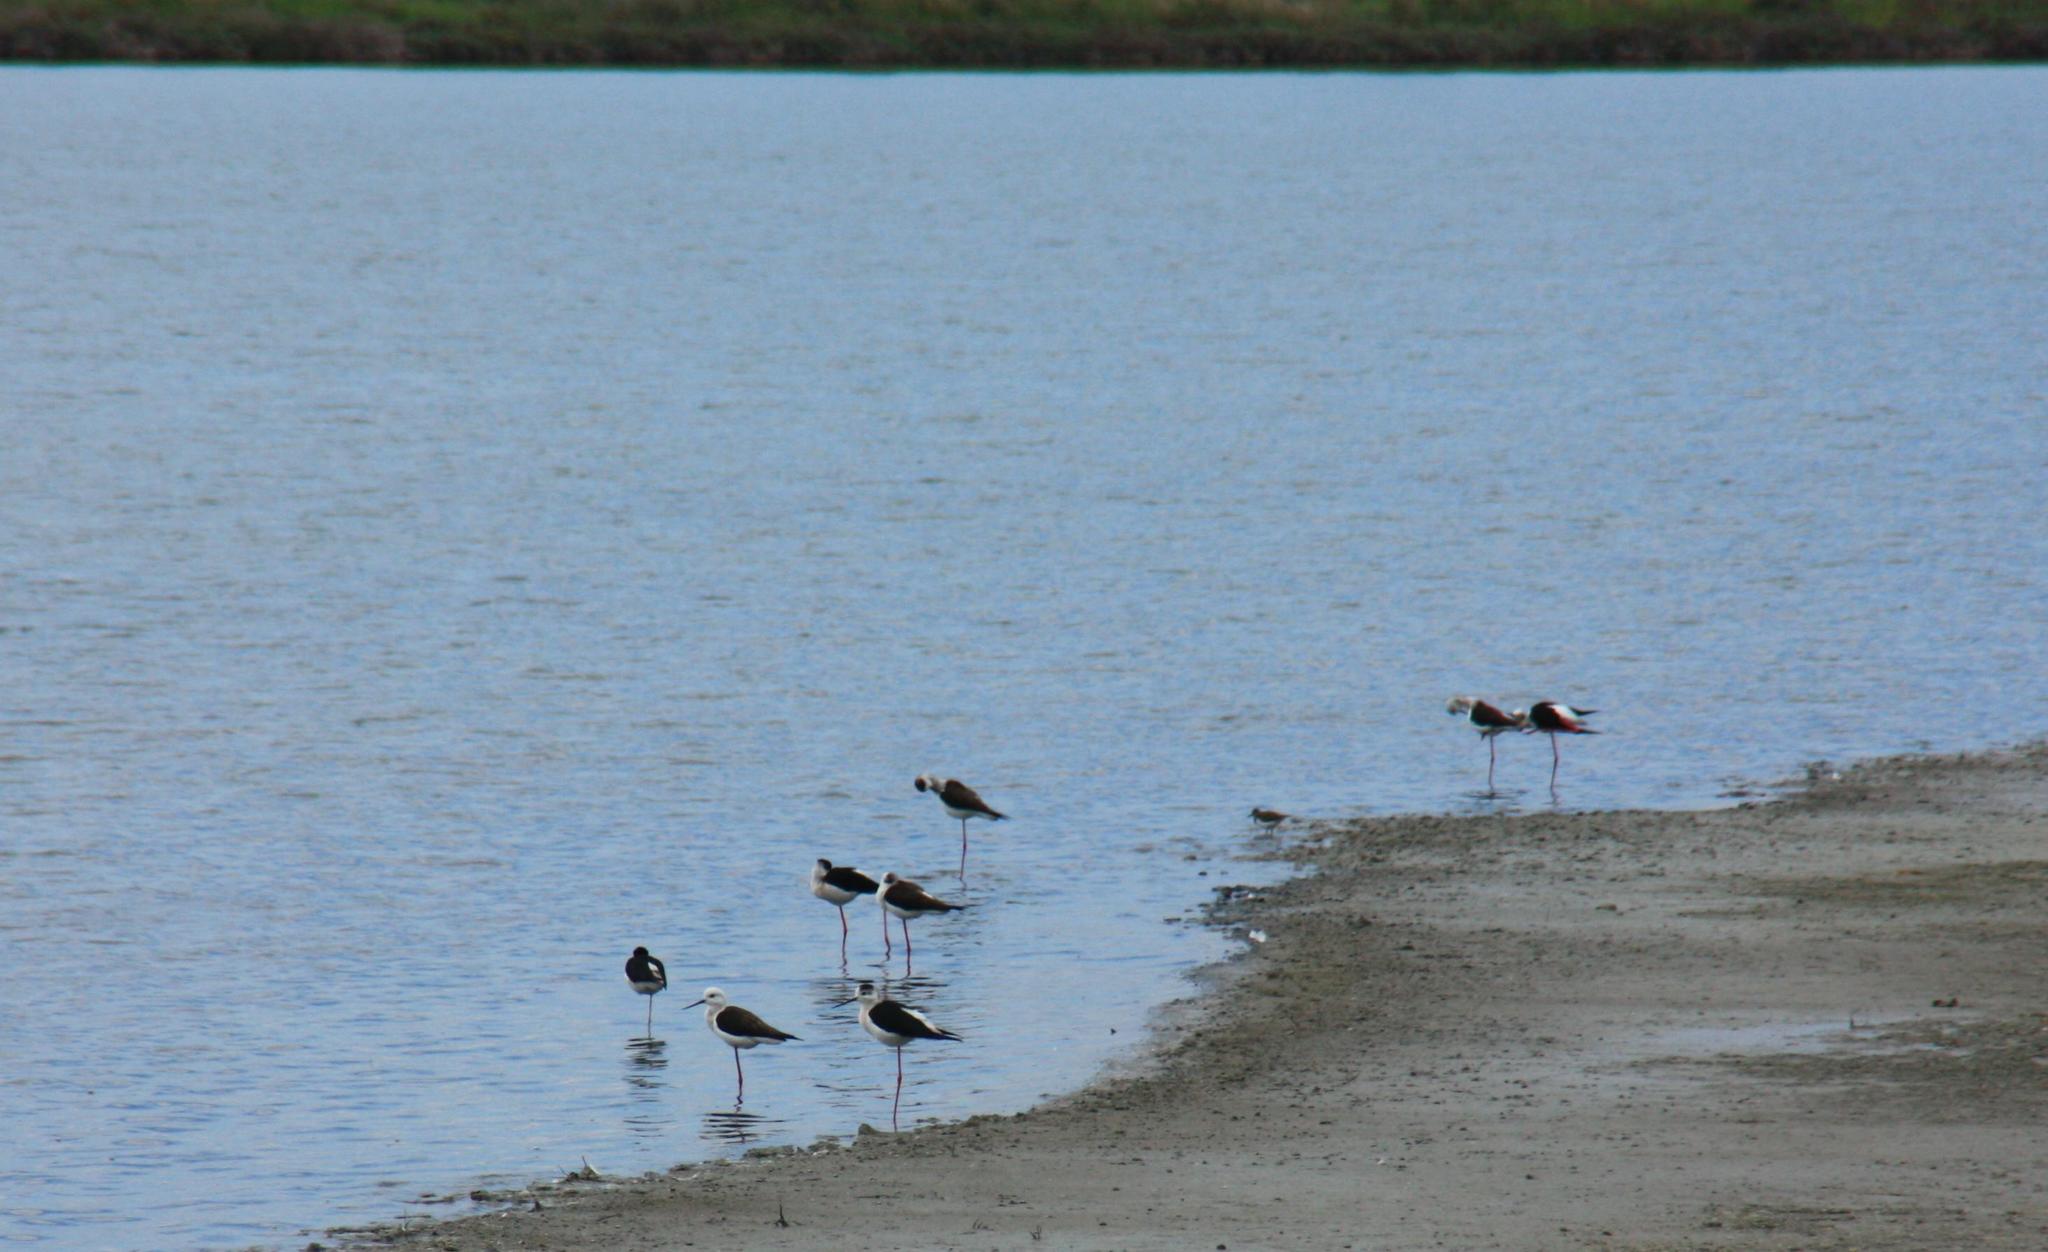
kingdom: Animalia
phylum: Chordata
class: Aves
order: Charadriiformes
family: Recurvirostridae
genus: Himantopus
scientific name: Himantopus himantopus
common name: Black-winged stilt
